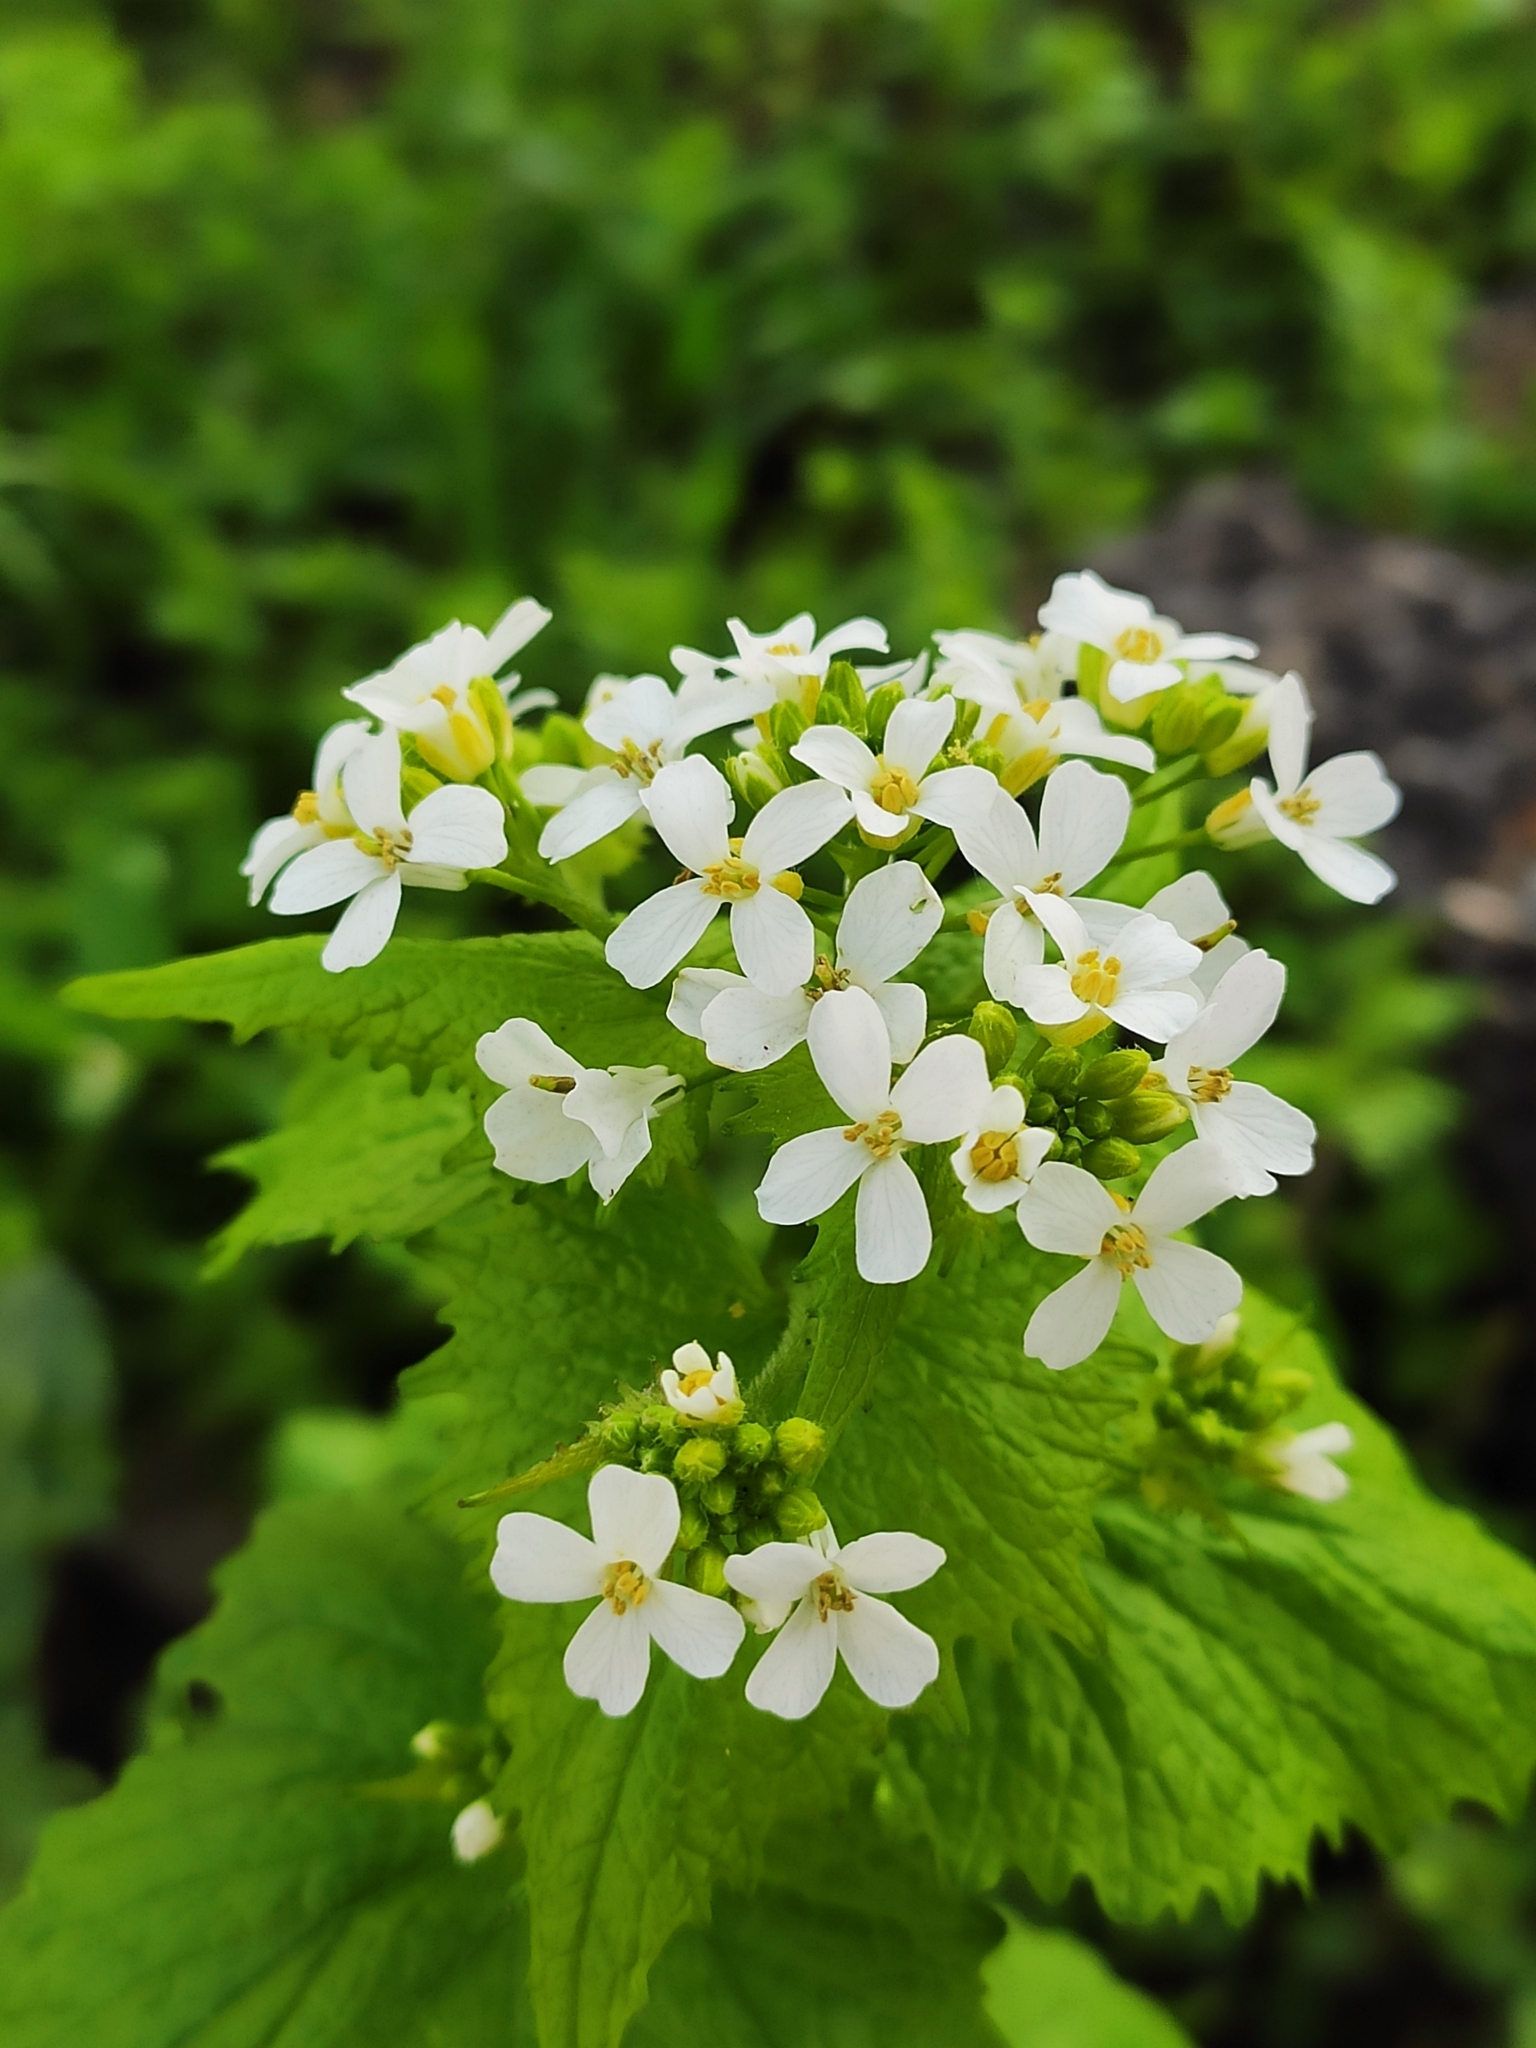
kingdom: Plantae
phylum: Tracheophyta
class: Magnoliopsida
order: Brassicales
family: Brassicaceae
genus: Alliaria
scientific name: Alliaria petiolata
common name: Garlic mustard
